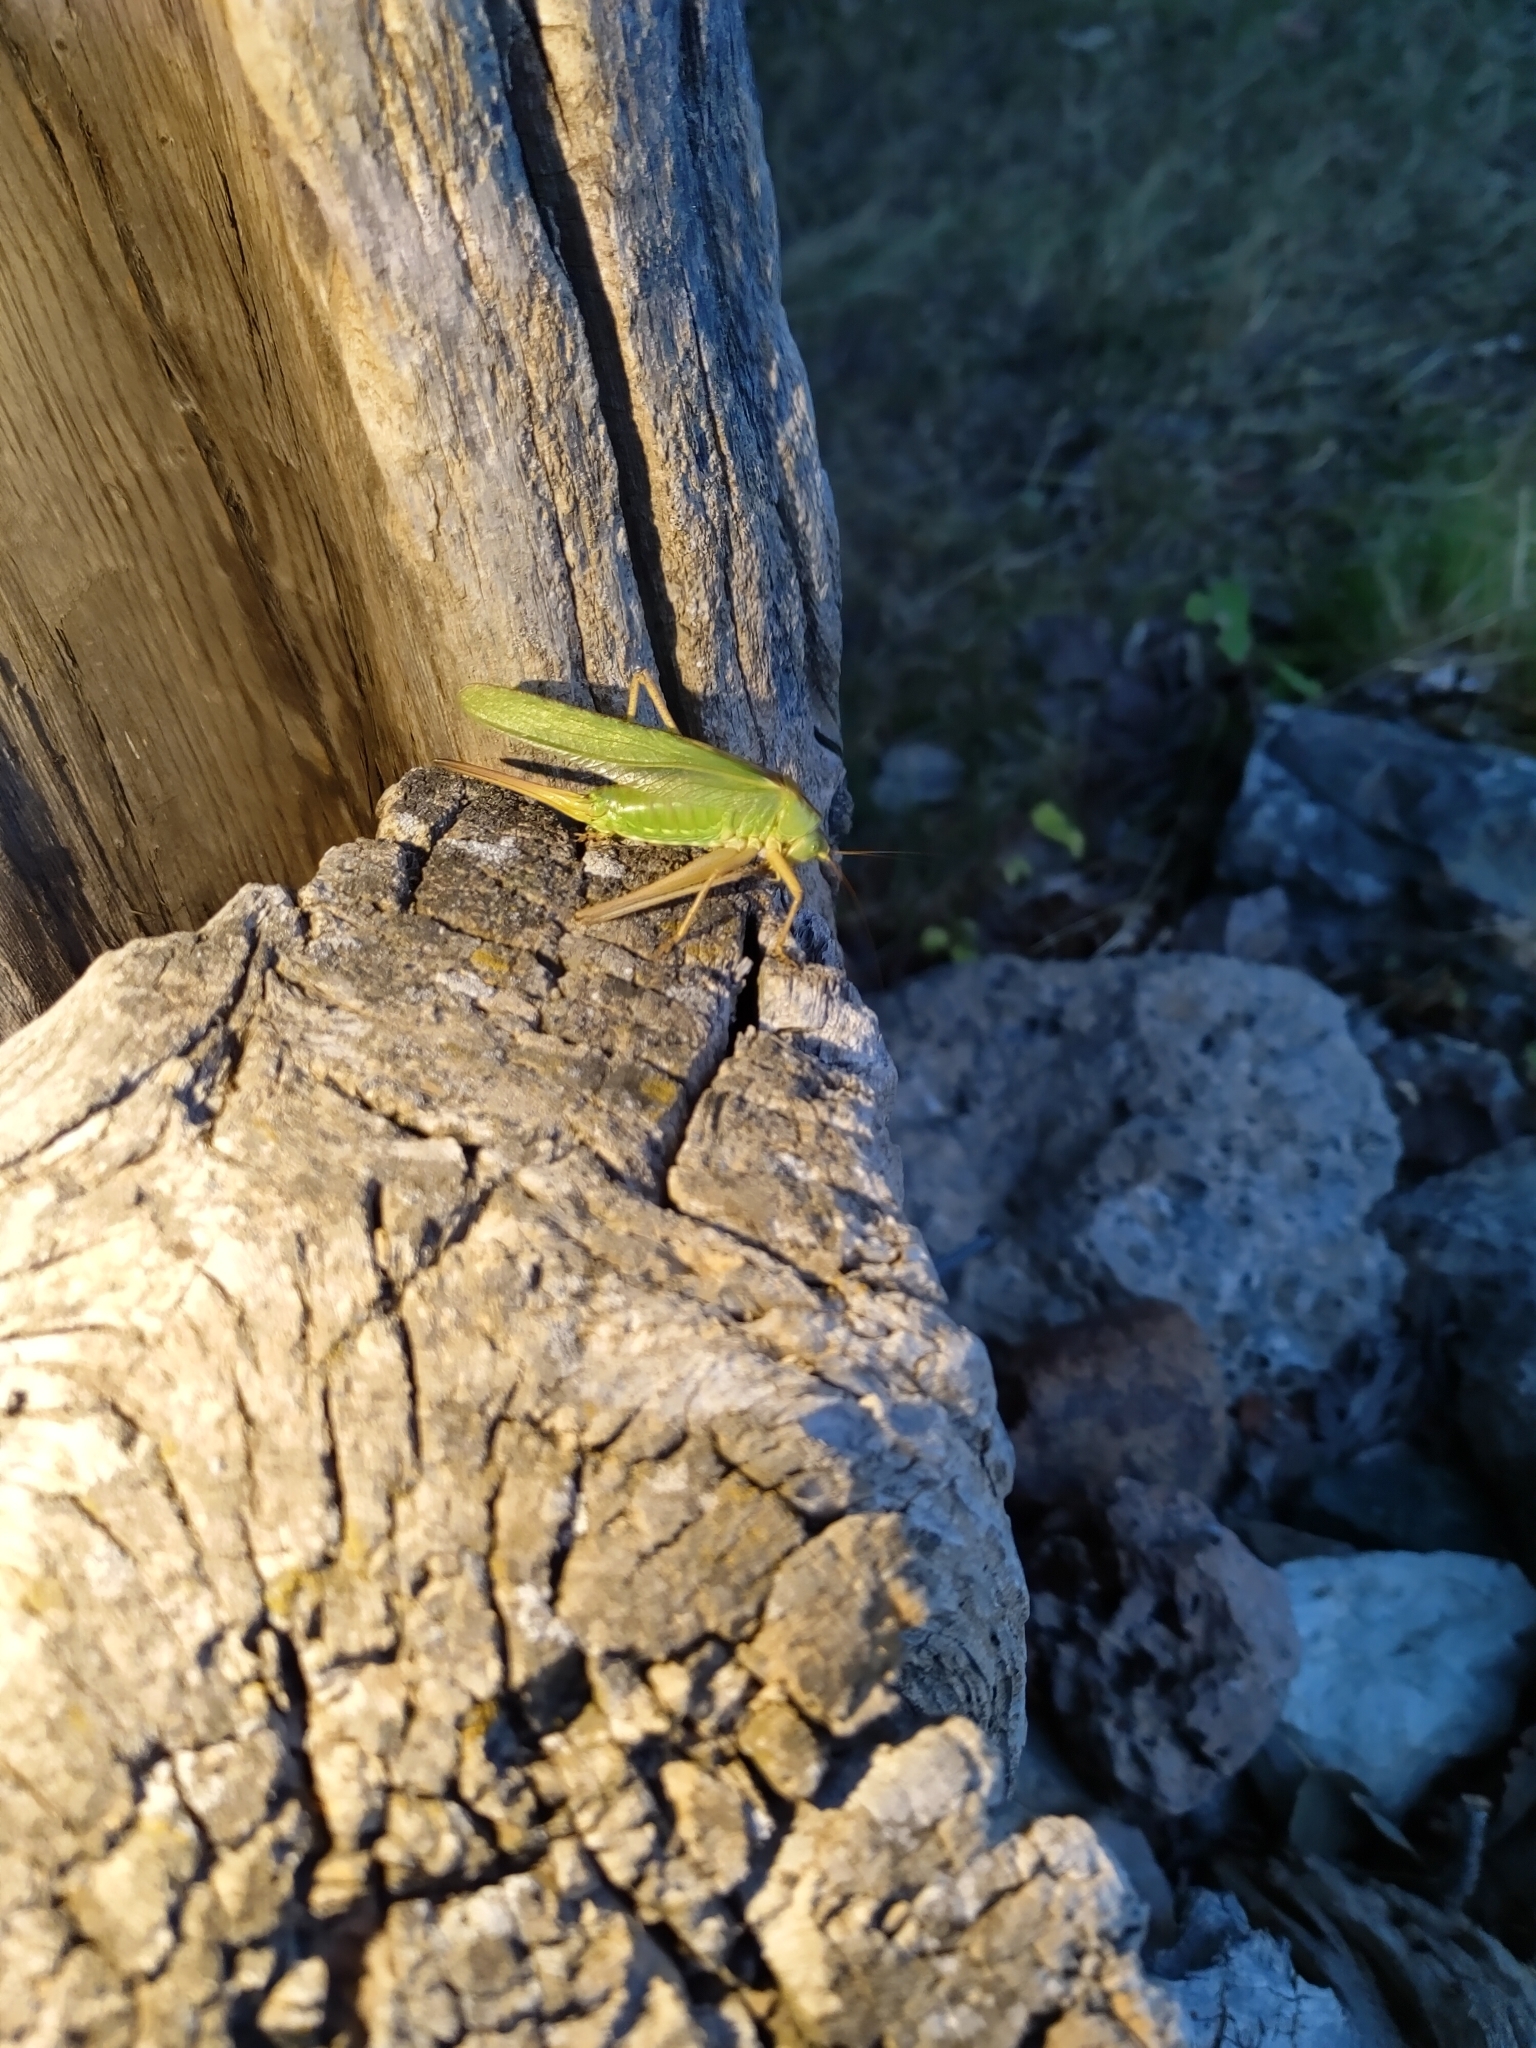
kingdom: Animalia
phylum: Arthropoda
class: Insecta
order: Orthoptera
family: Tettigoniidae
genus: Tettigonia
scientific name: Tettigonia viridissima
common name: Great green bush-cricket
